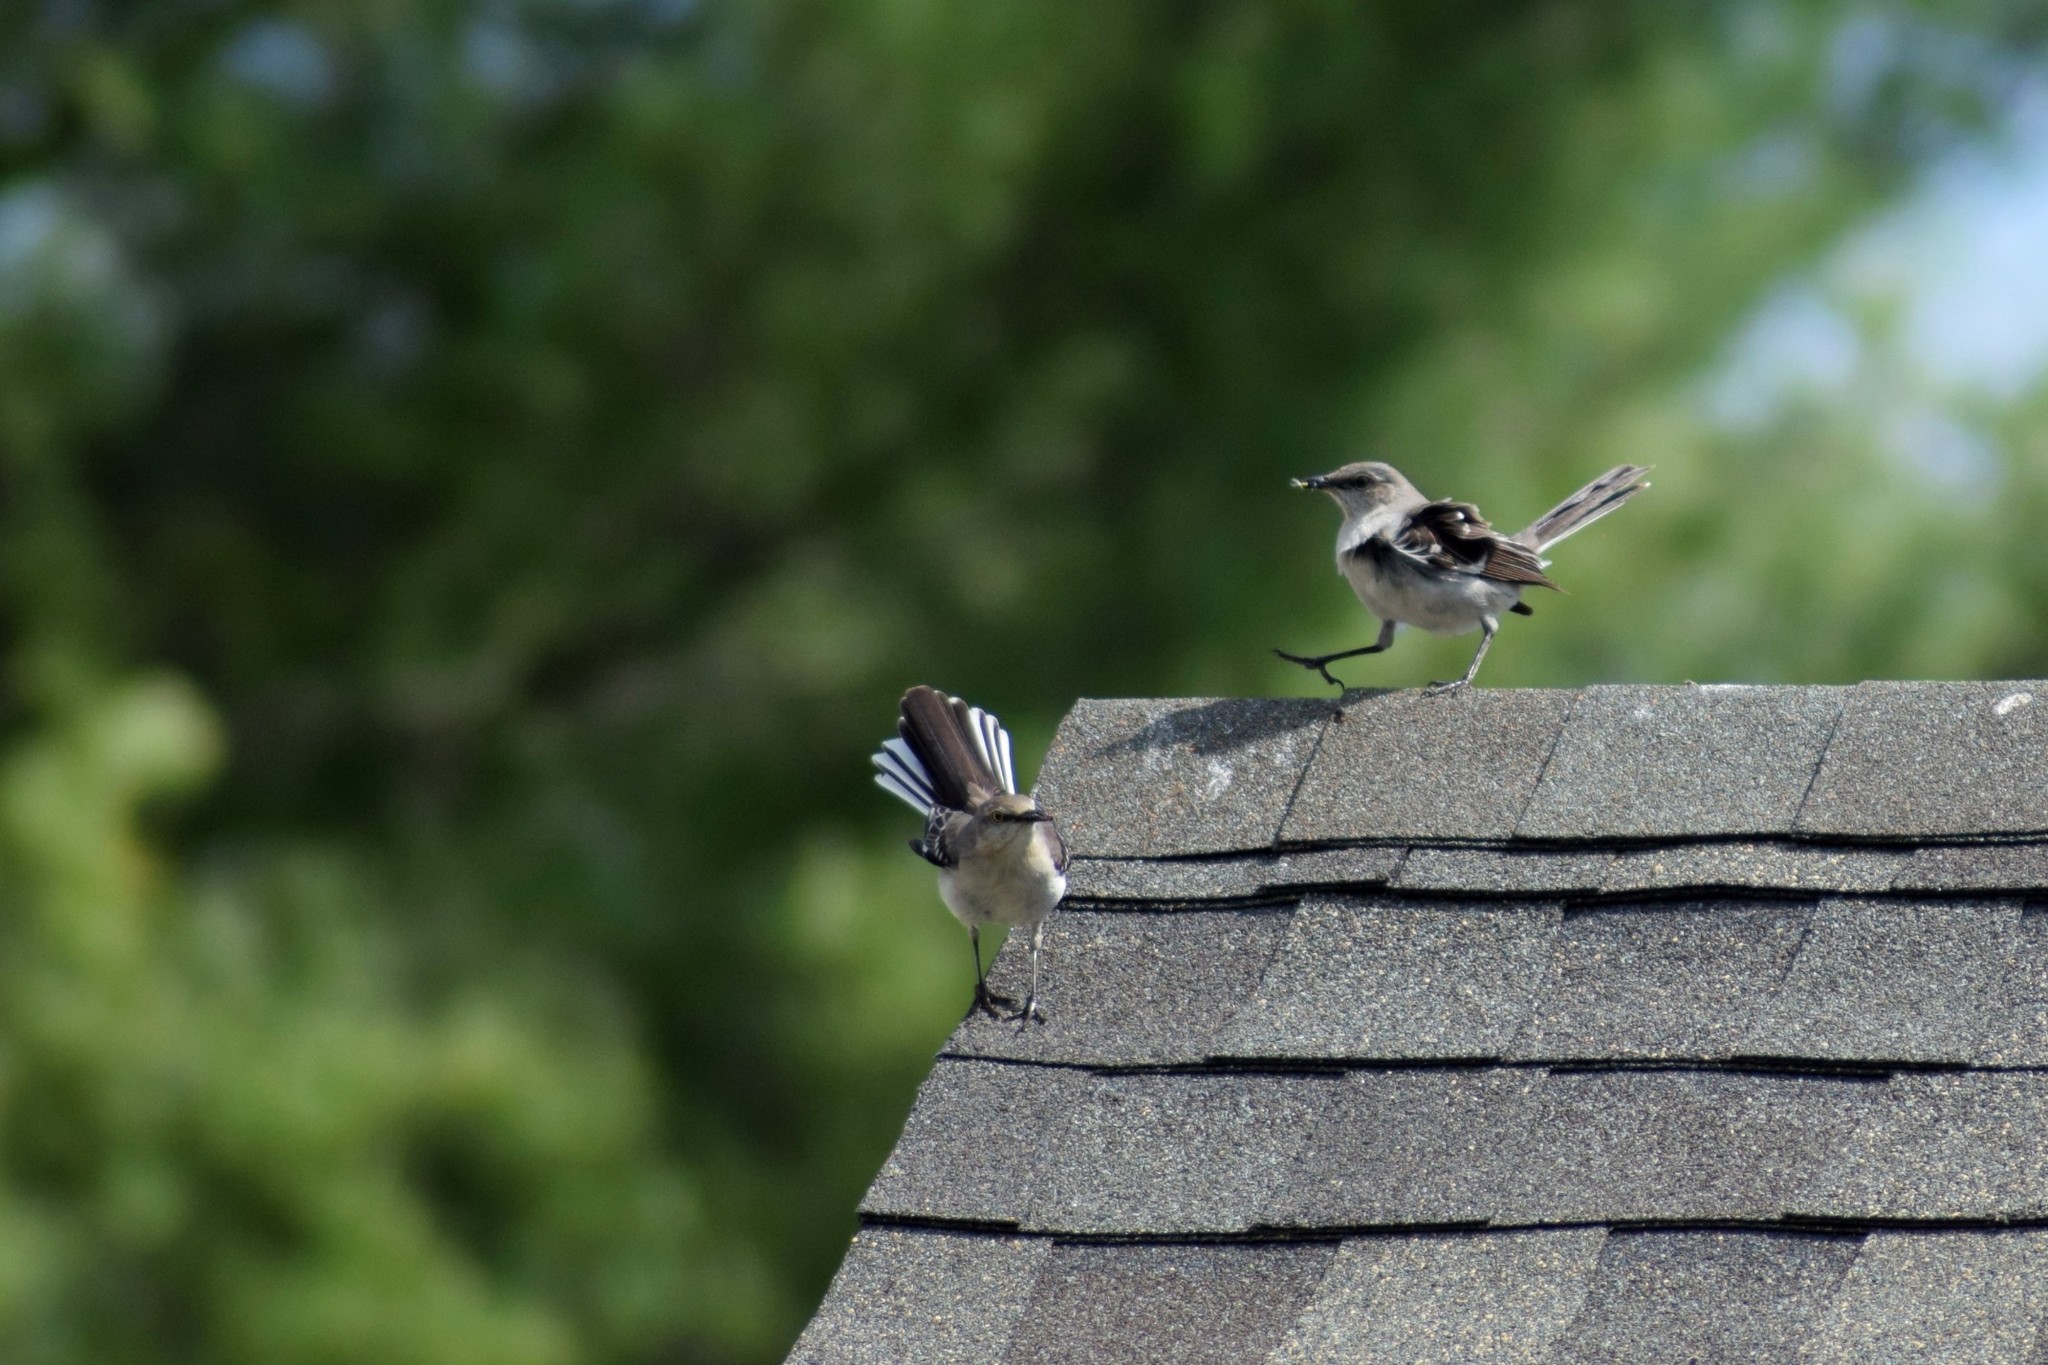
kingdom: Animalia
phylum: Chordata
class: Aves
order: Passeriformes
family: Mimidae
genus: Mimus
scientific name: Mimus polyglottos
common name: Northern mockingbird
